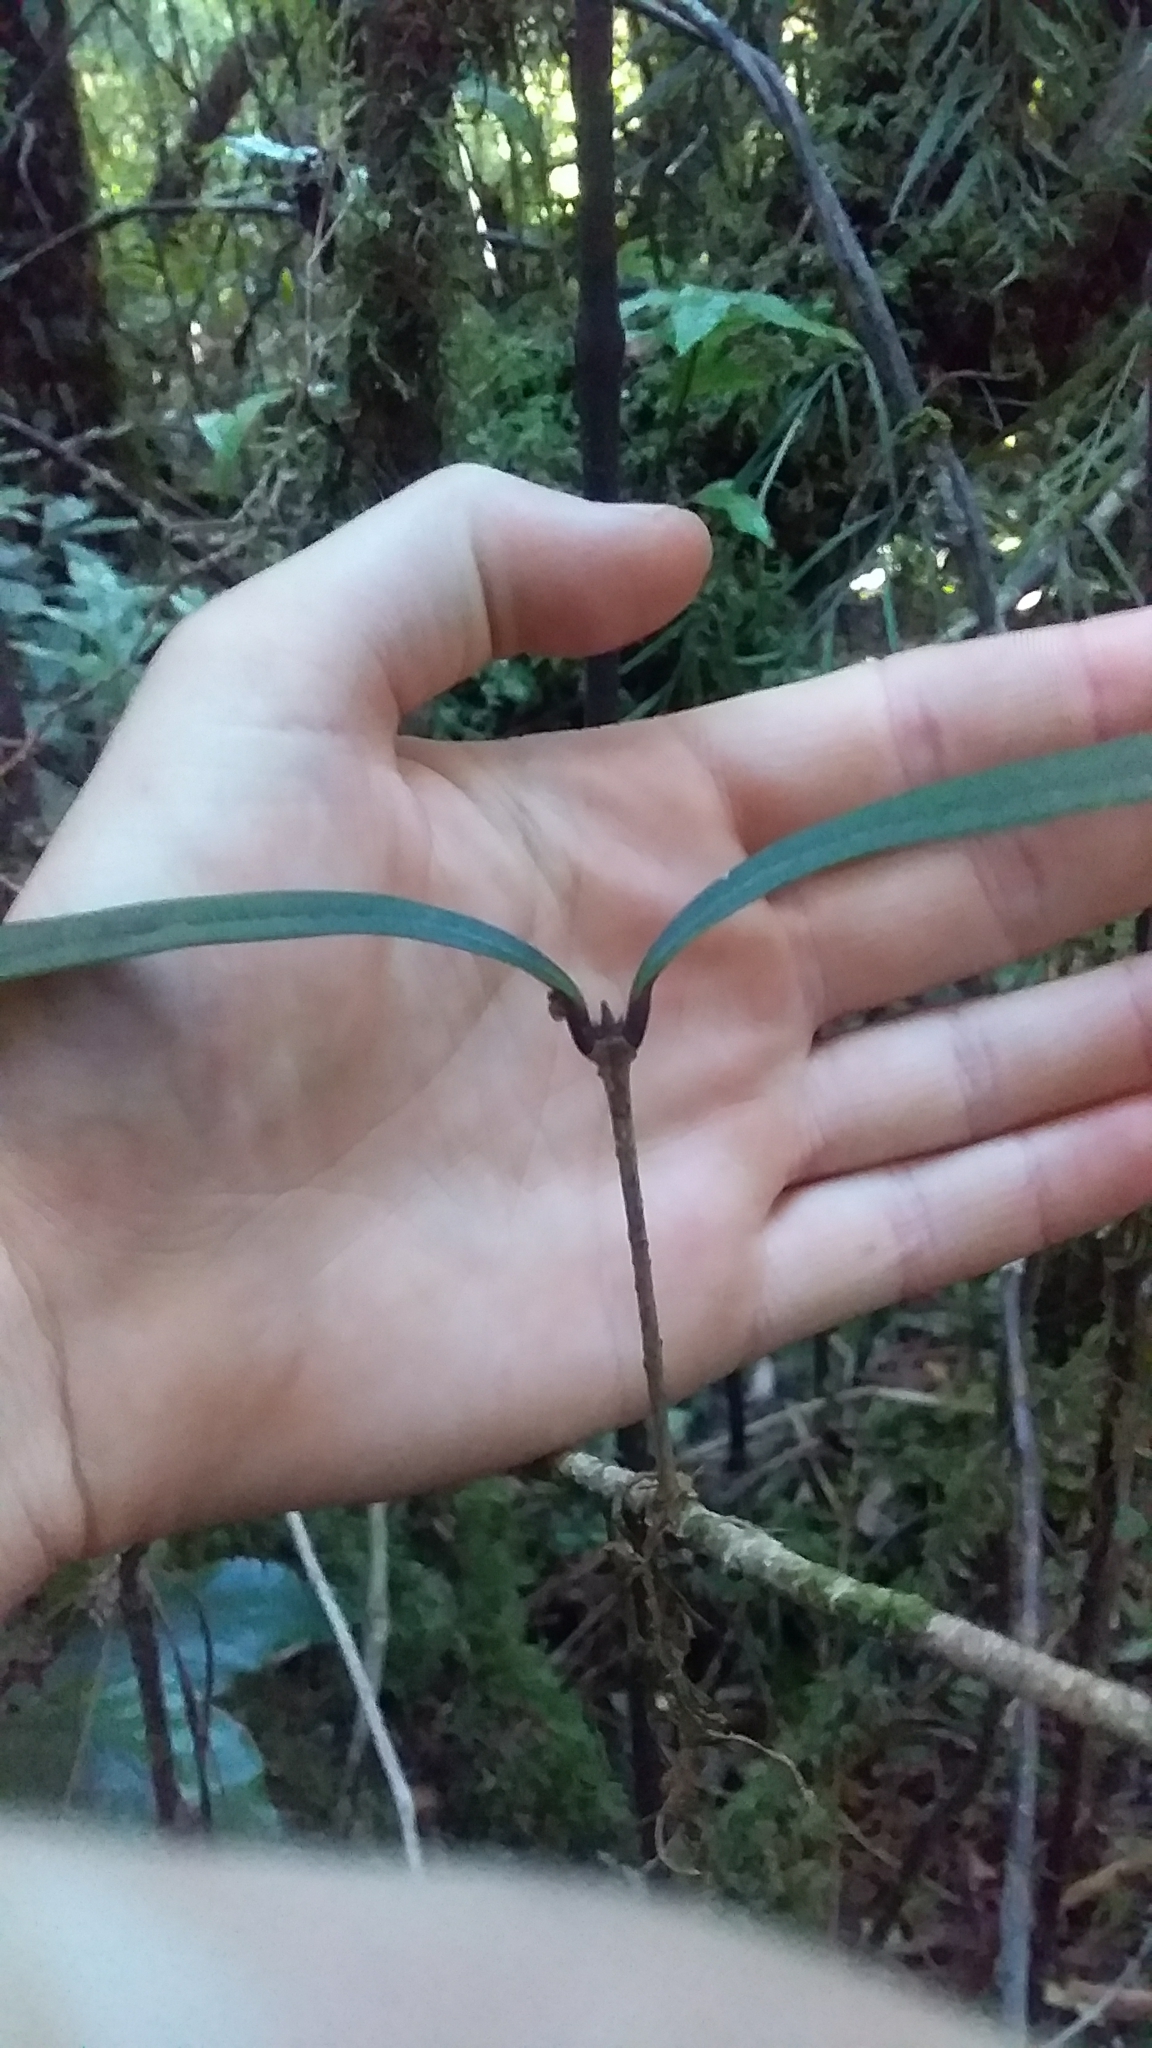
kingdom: Plantae
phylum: Tracheophyta
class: Magnoliopsida
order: Lamiales
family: Oleaceae
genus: Nestegis
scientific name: Nestegis cunninghamii
